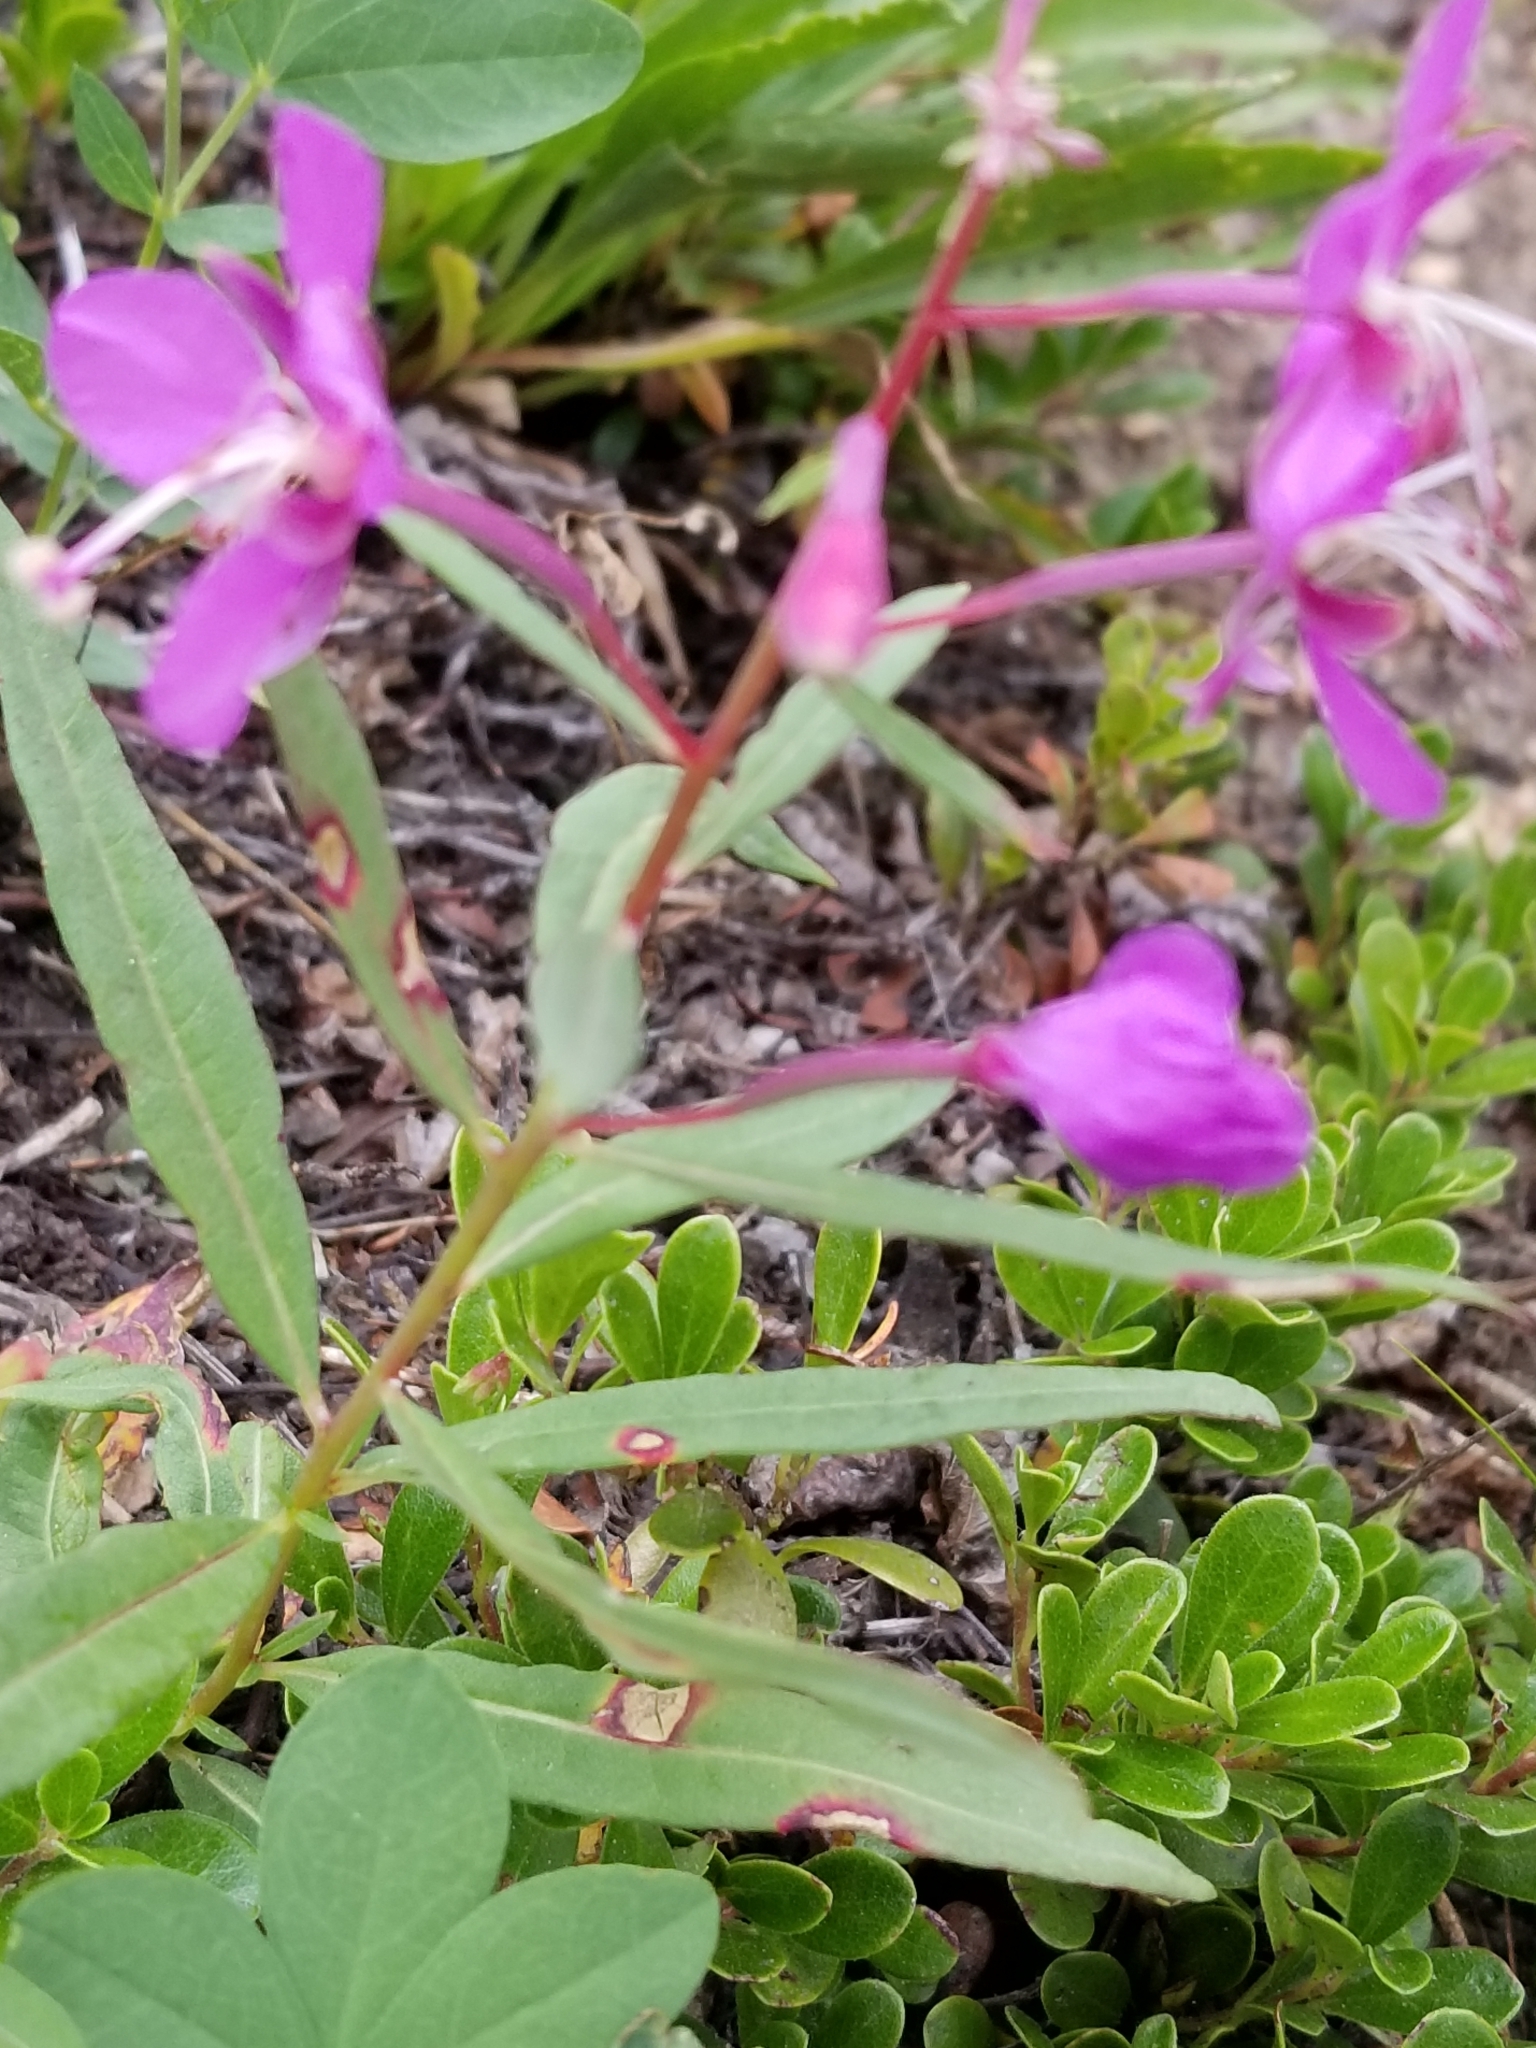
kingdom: Plantae
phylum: Tracheophyta
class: Magnoliopsida
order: Myrtales
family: Onagraceae
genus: Chamaenerion
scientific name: Chamaenerion angustifolium
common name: Fireweed
